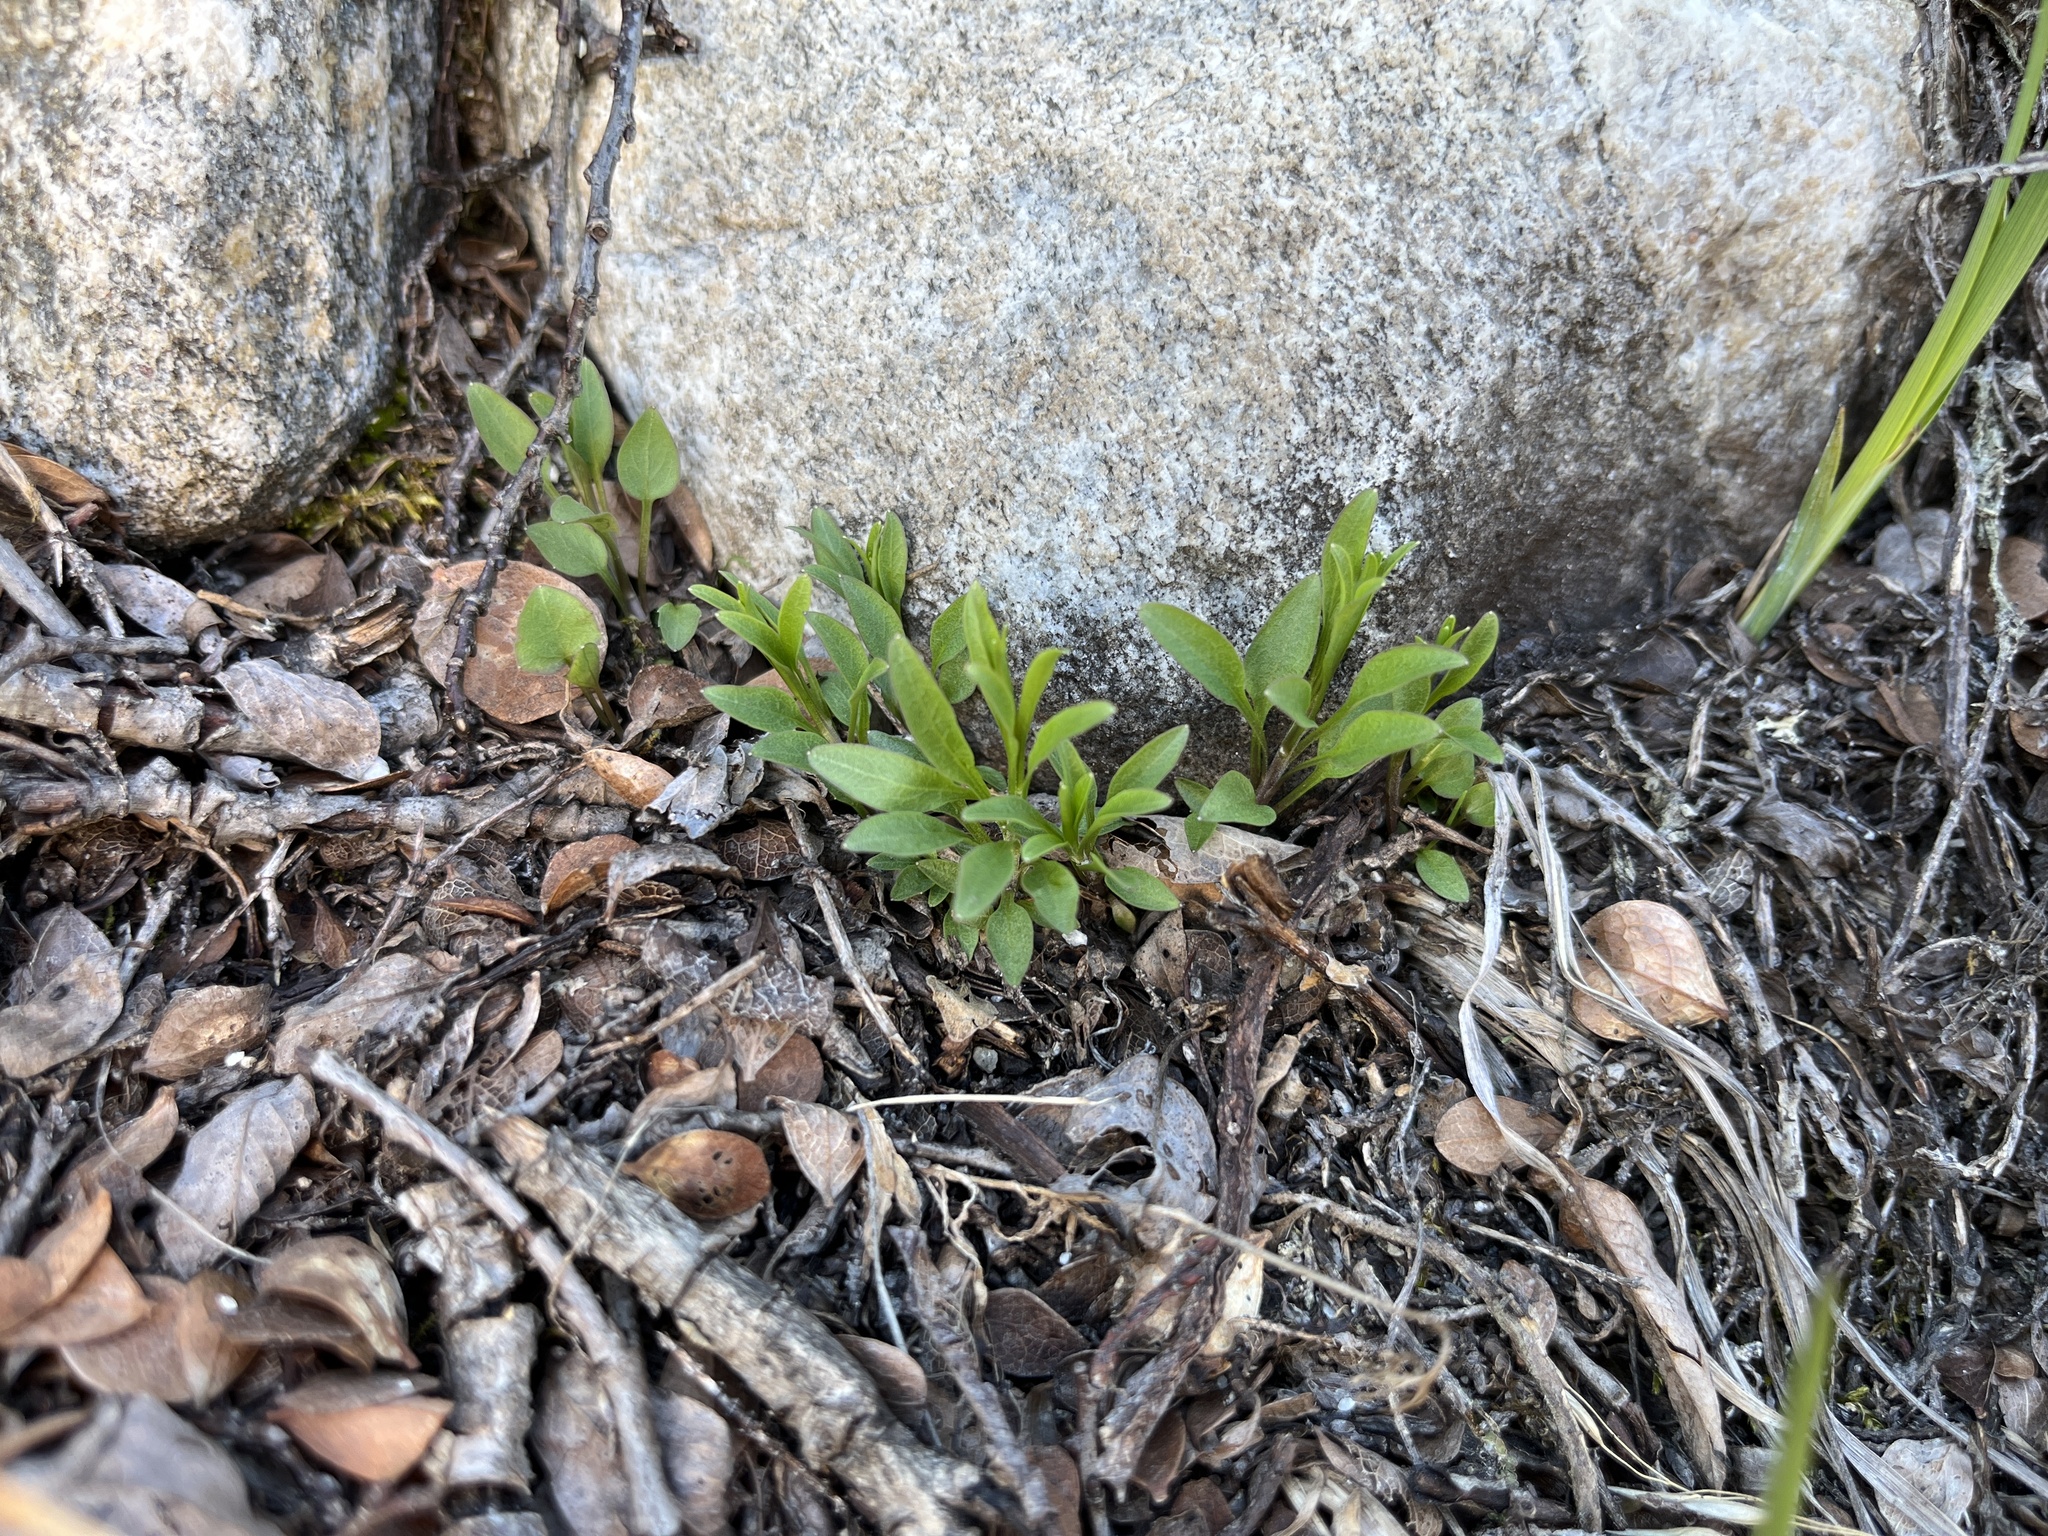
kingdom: Plantae
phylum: Tracheophyta
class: Magnoliopsida
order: Asterales
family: Campanulaceae
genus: Campanula
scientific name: Campanula giesekiana
